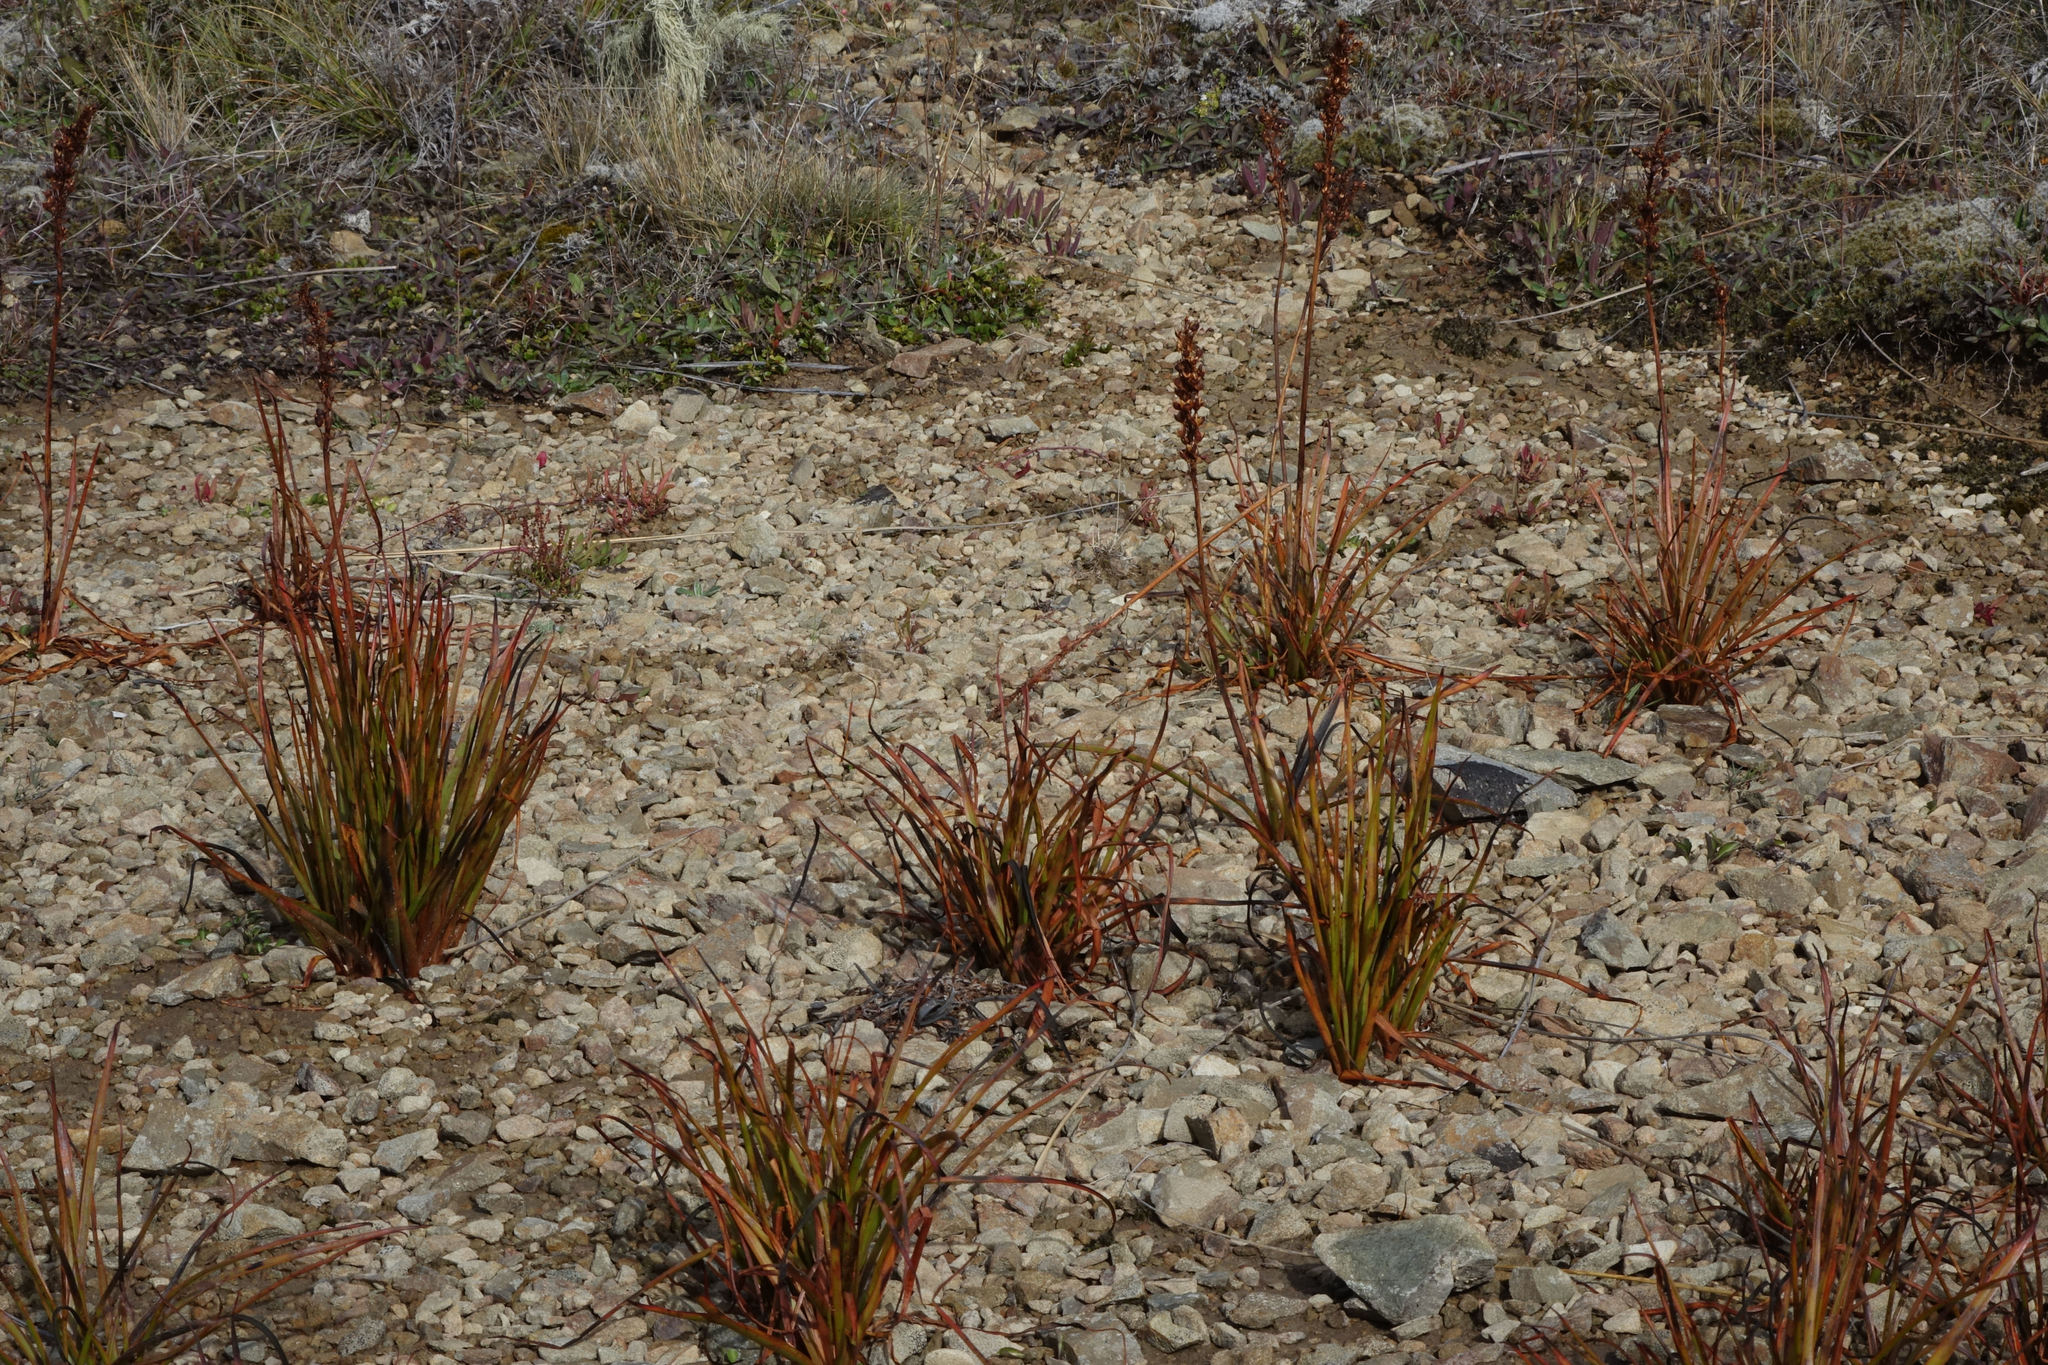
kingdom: Plantae
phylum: Tracheophyta
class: Liliopsida
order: Asparagales
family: Asphodelaceae
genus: Bulbinella
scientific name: Bulbinella angustifolia
